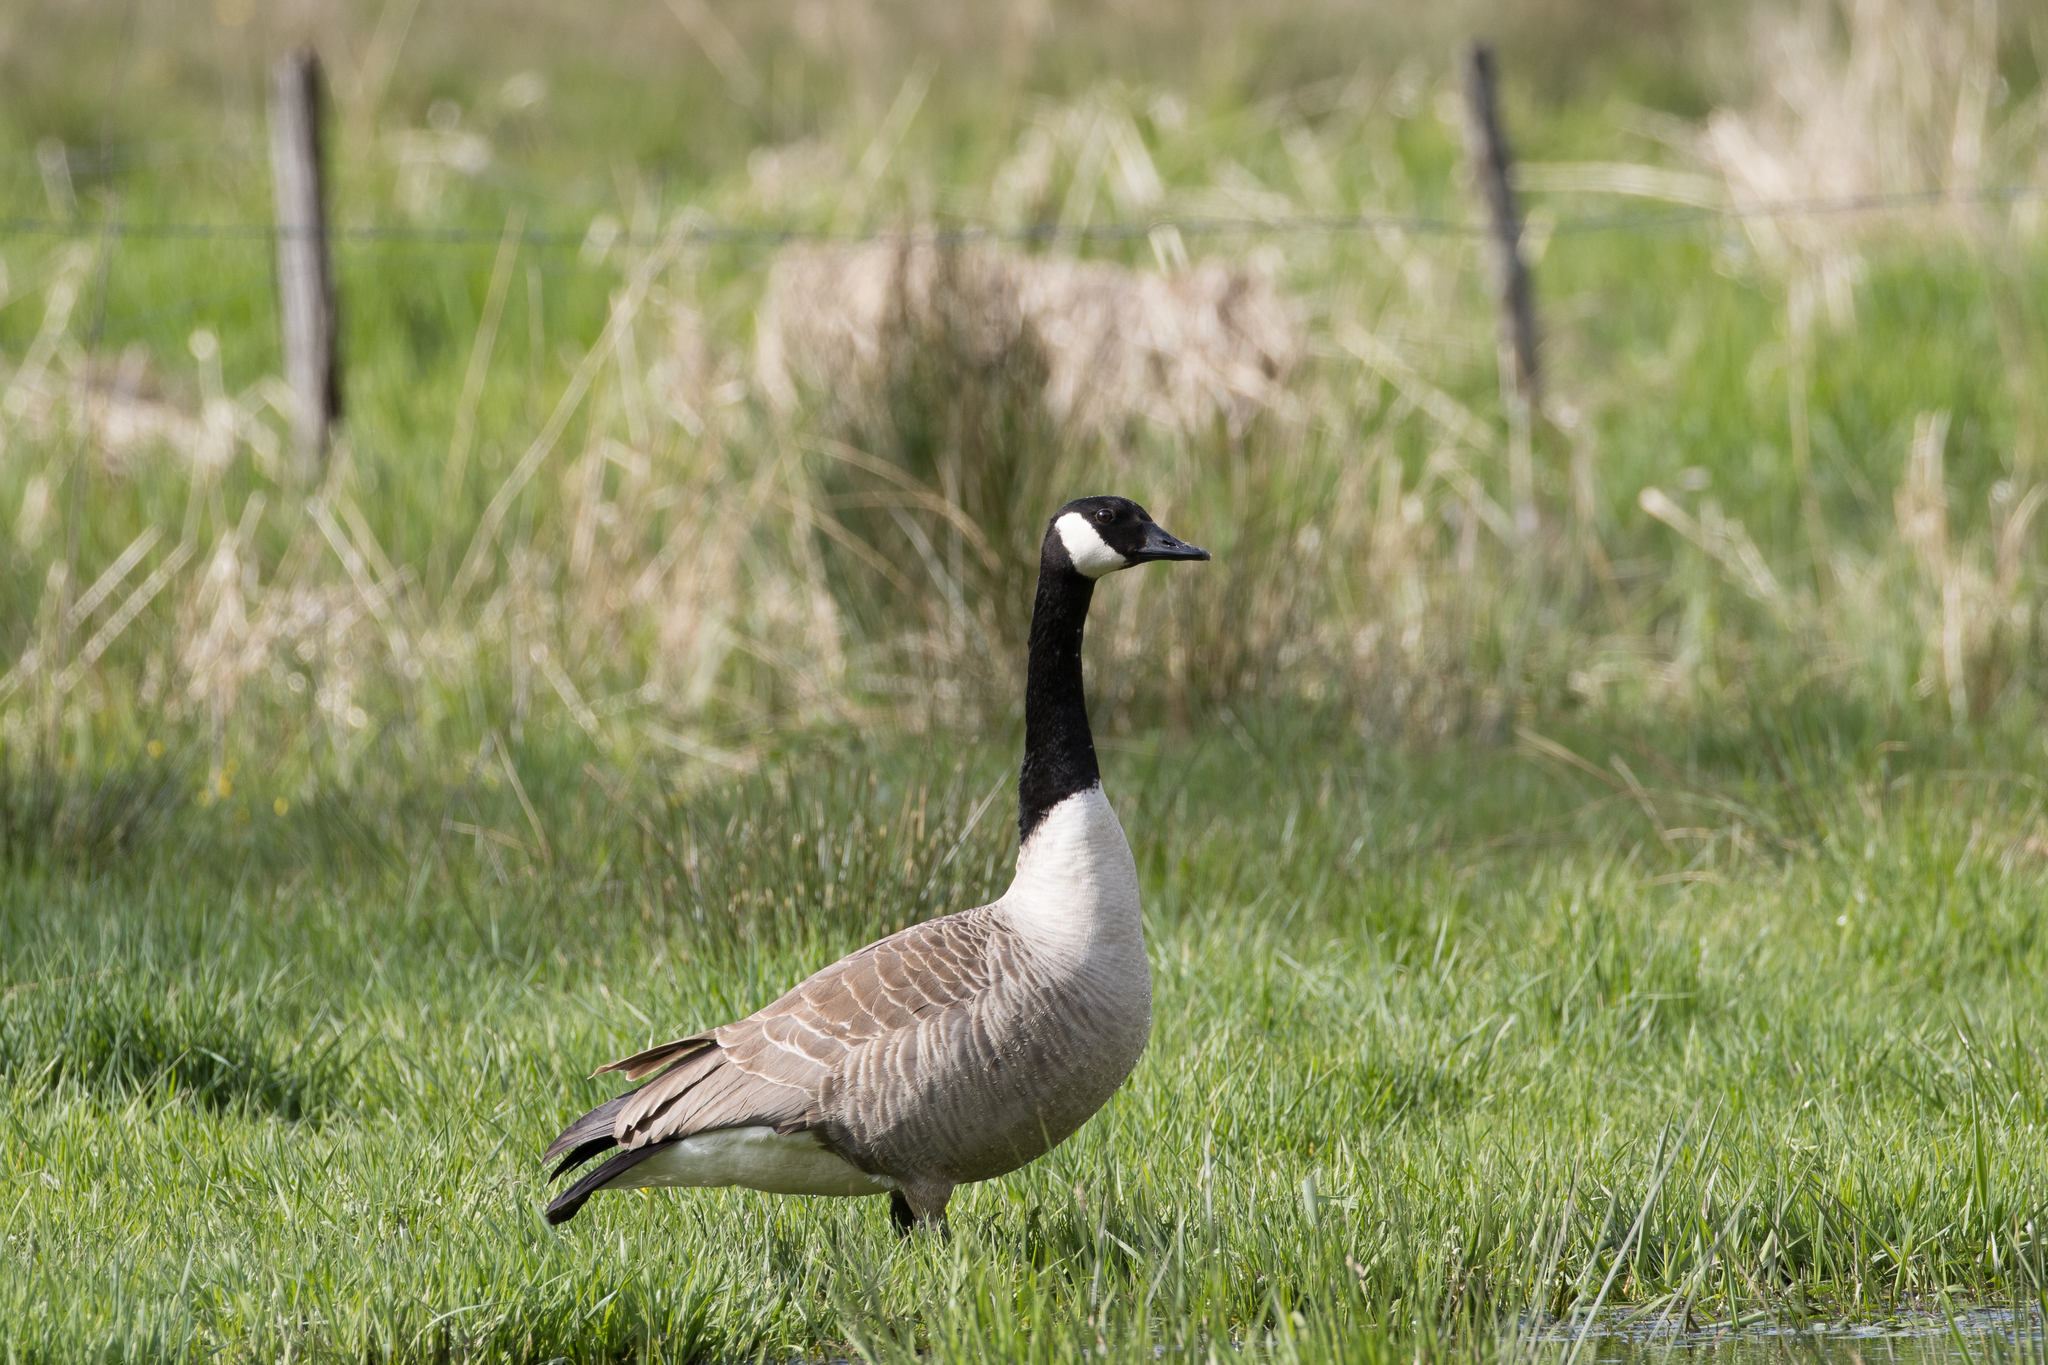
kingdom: Animalia
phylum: Chordata
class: Aves
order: Anseriformes
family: Anatidae
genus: Branta
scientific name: Branta canadensis
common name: Canada goose
